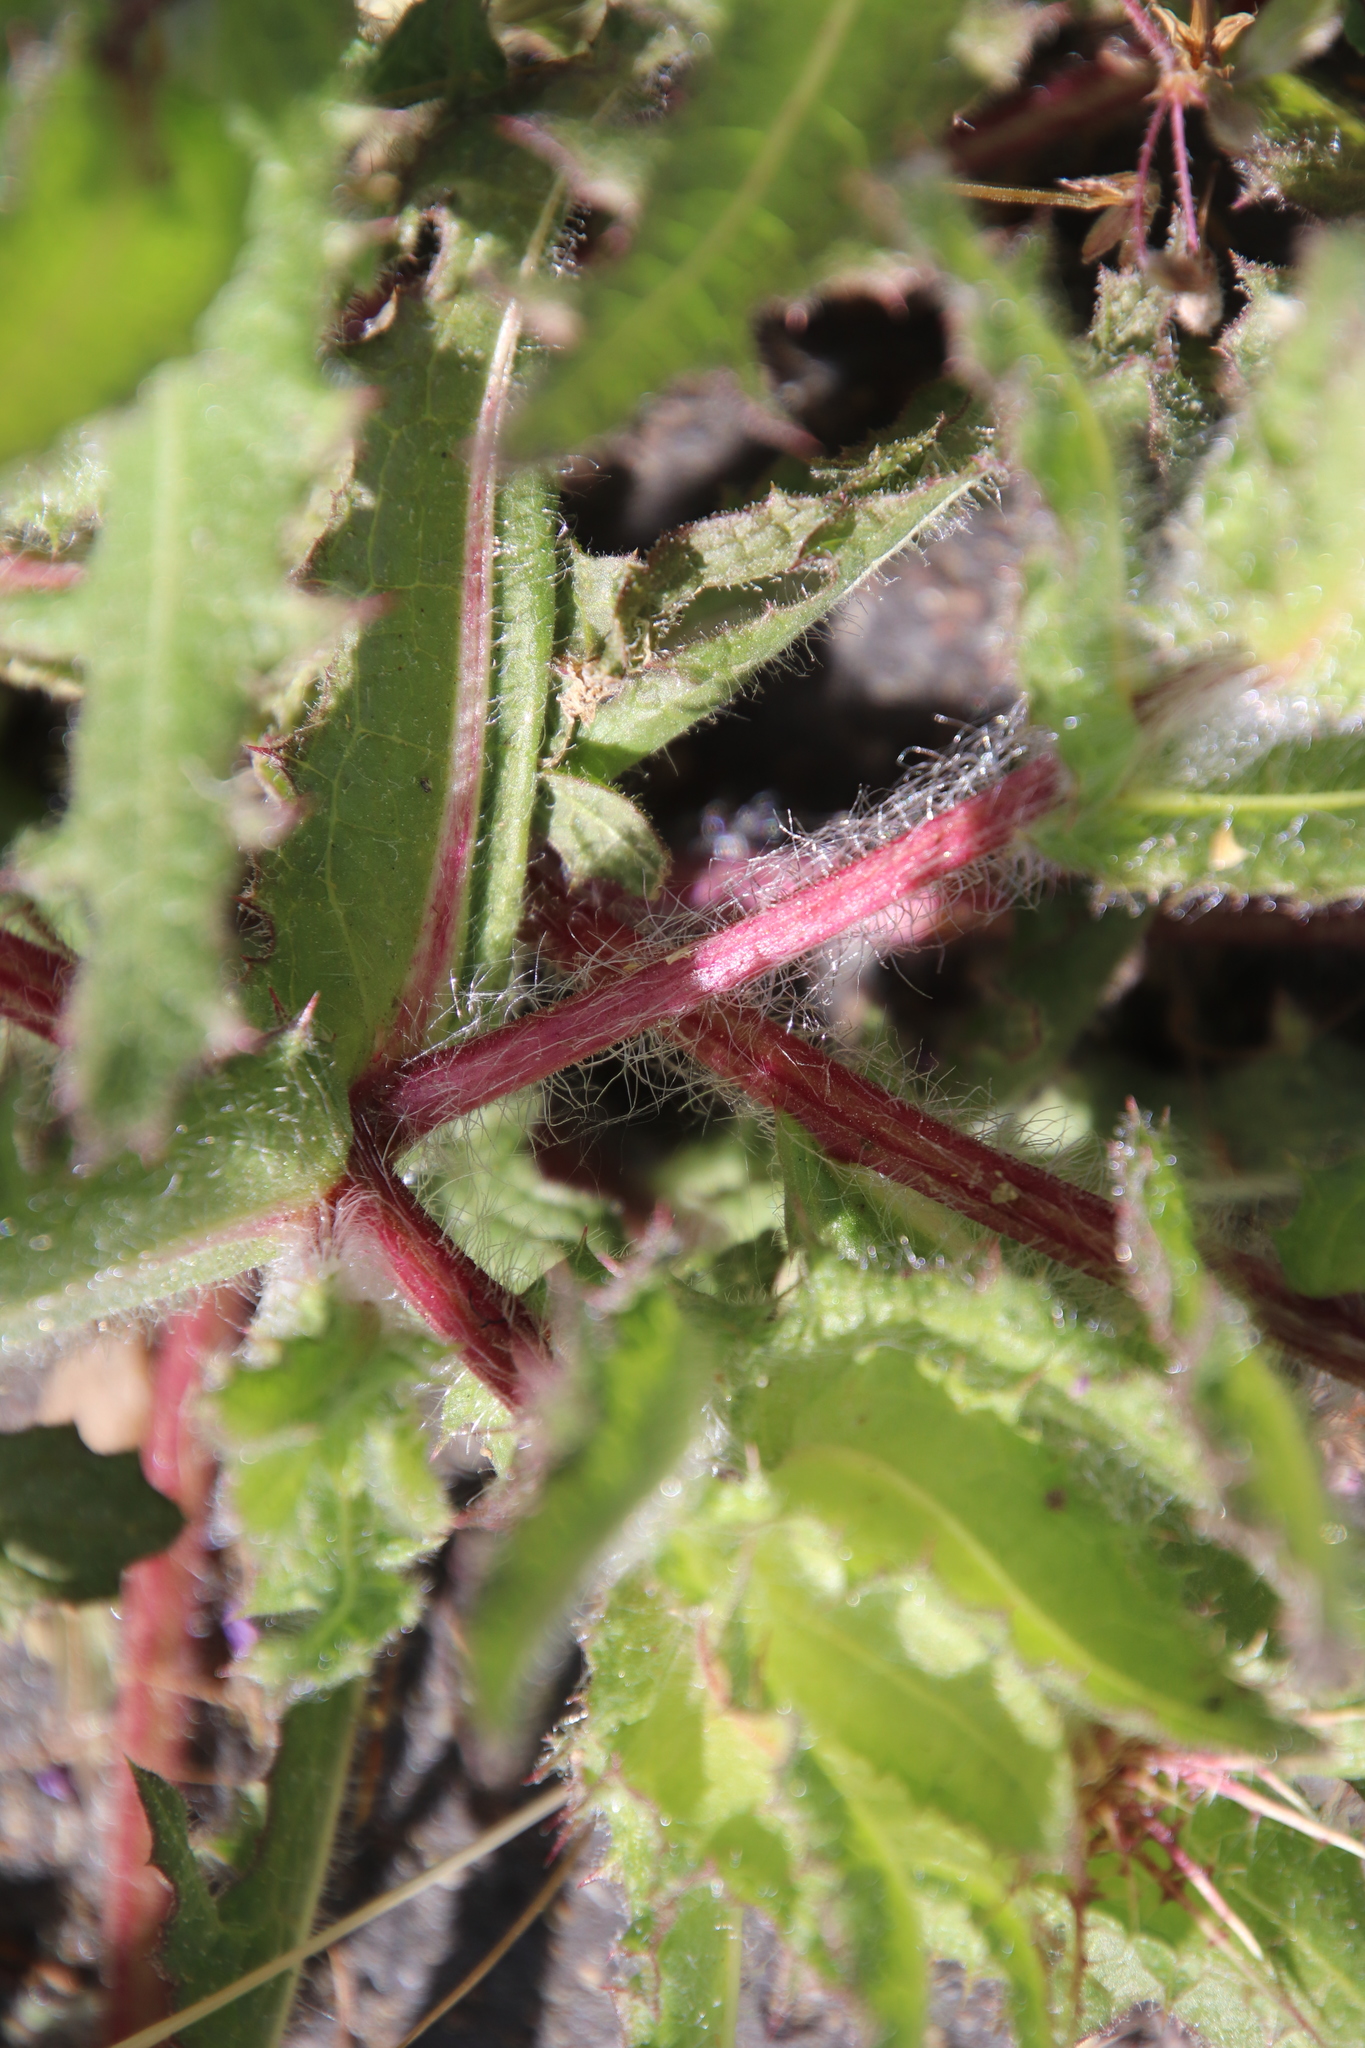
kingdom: Plantae
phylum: Tracheophyta
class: Magnoliopsida
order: Asterales
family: Asteraceae
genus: Centaurea
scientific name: Centaurea benedicta
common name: Blessed thistle
